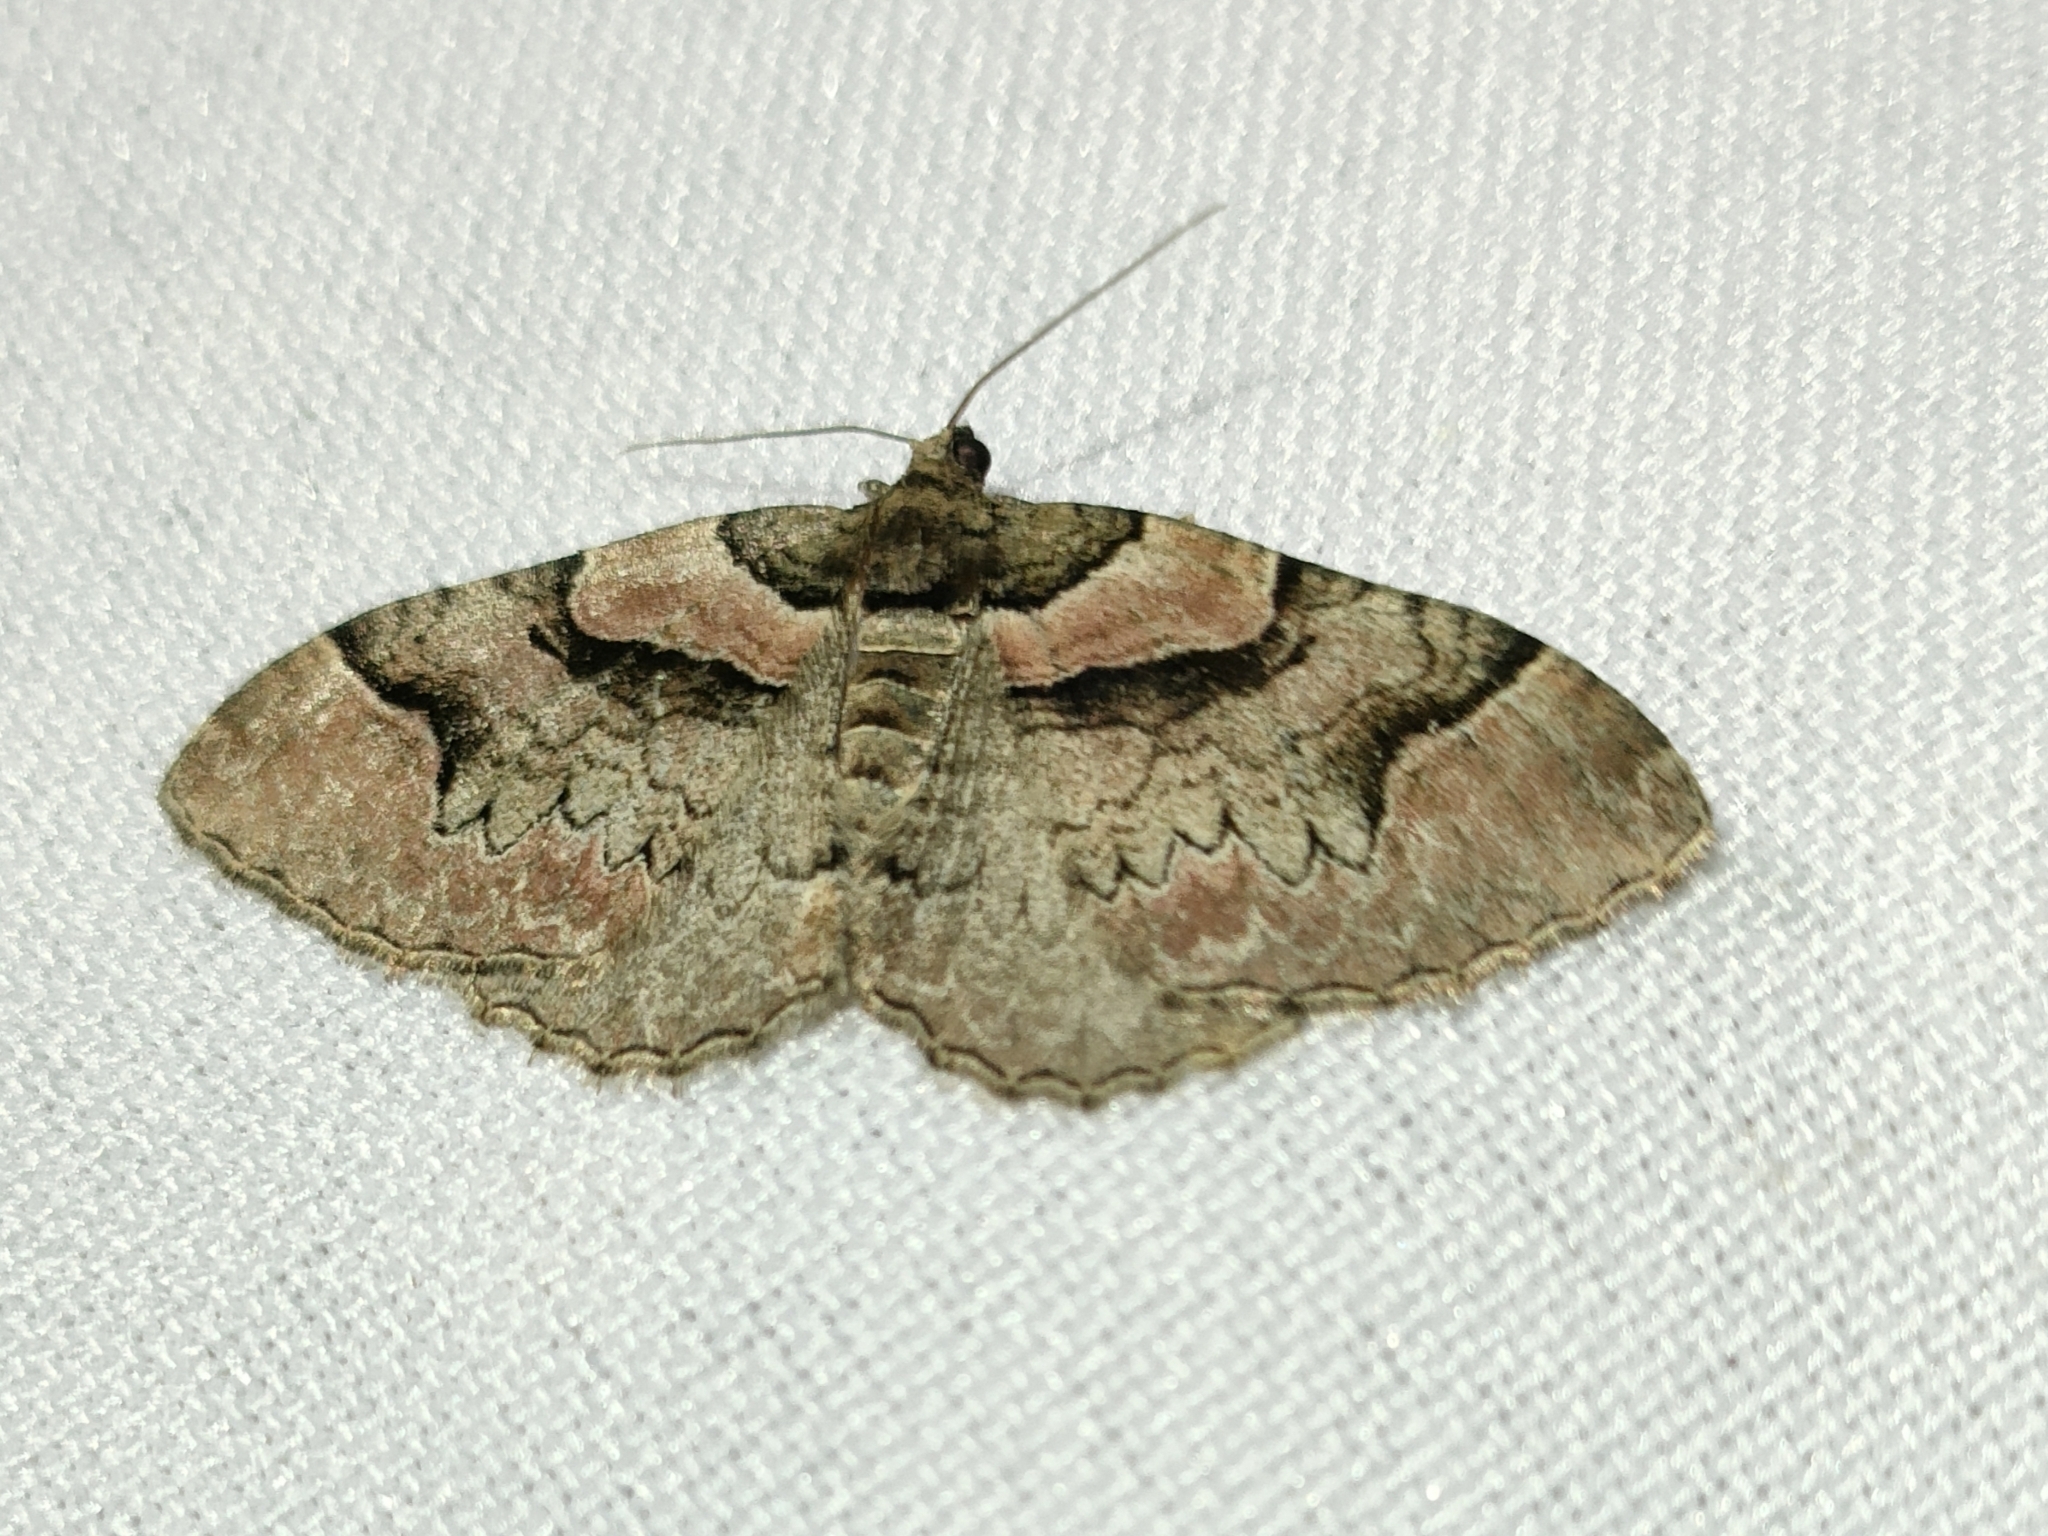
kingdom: Animalia
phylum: Arthropoda
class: Insecta
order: Lepidoptera
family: Geometridae
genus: Catarhoe
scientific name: Catarhoe rubidata
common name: Ruddy carpet
